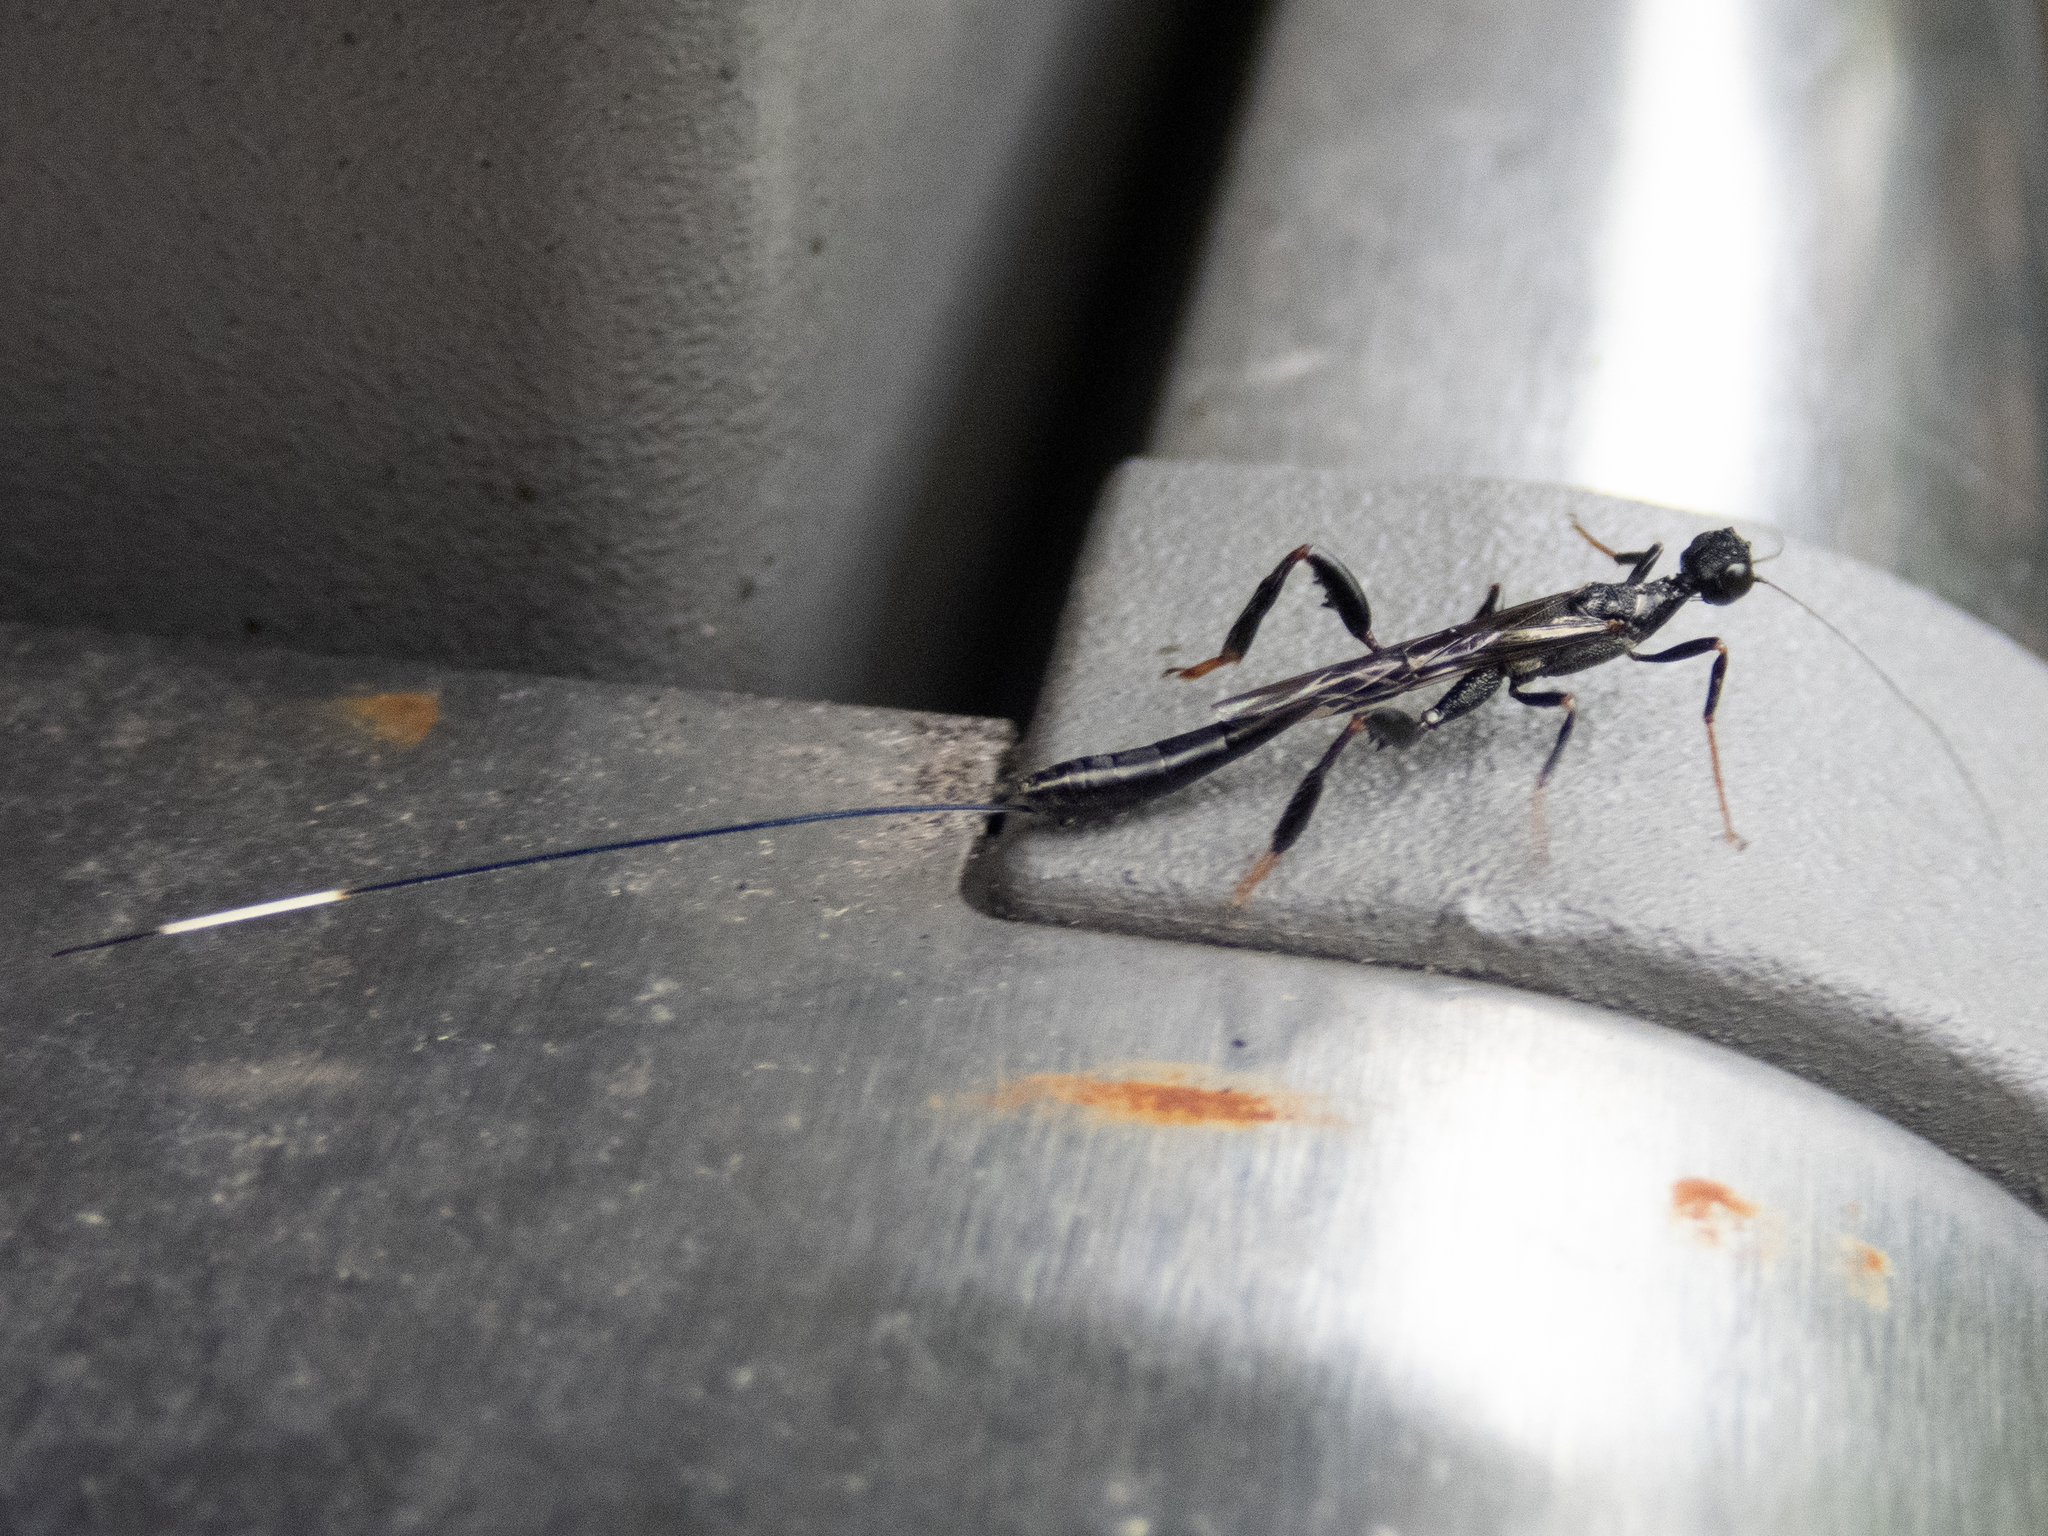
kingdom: Animalia
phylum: Arthropoda
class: Insecta
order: Hymenoptera
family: Stephanidae
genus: Megischus
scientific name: Megischus
